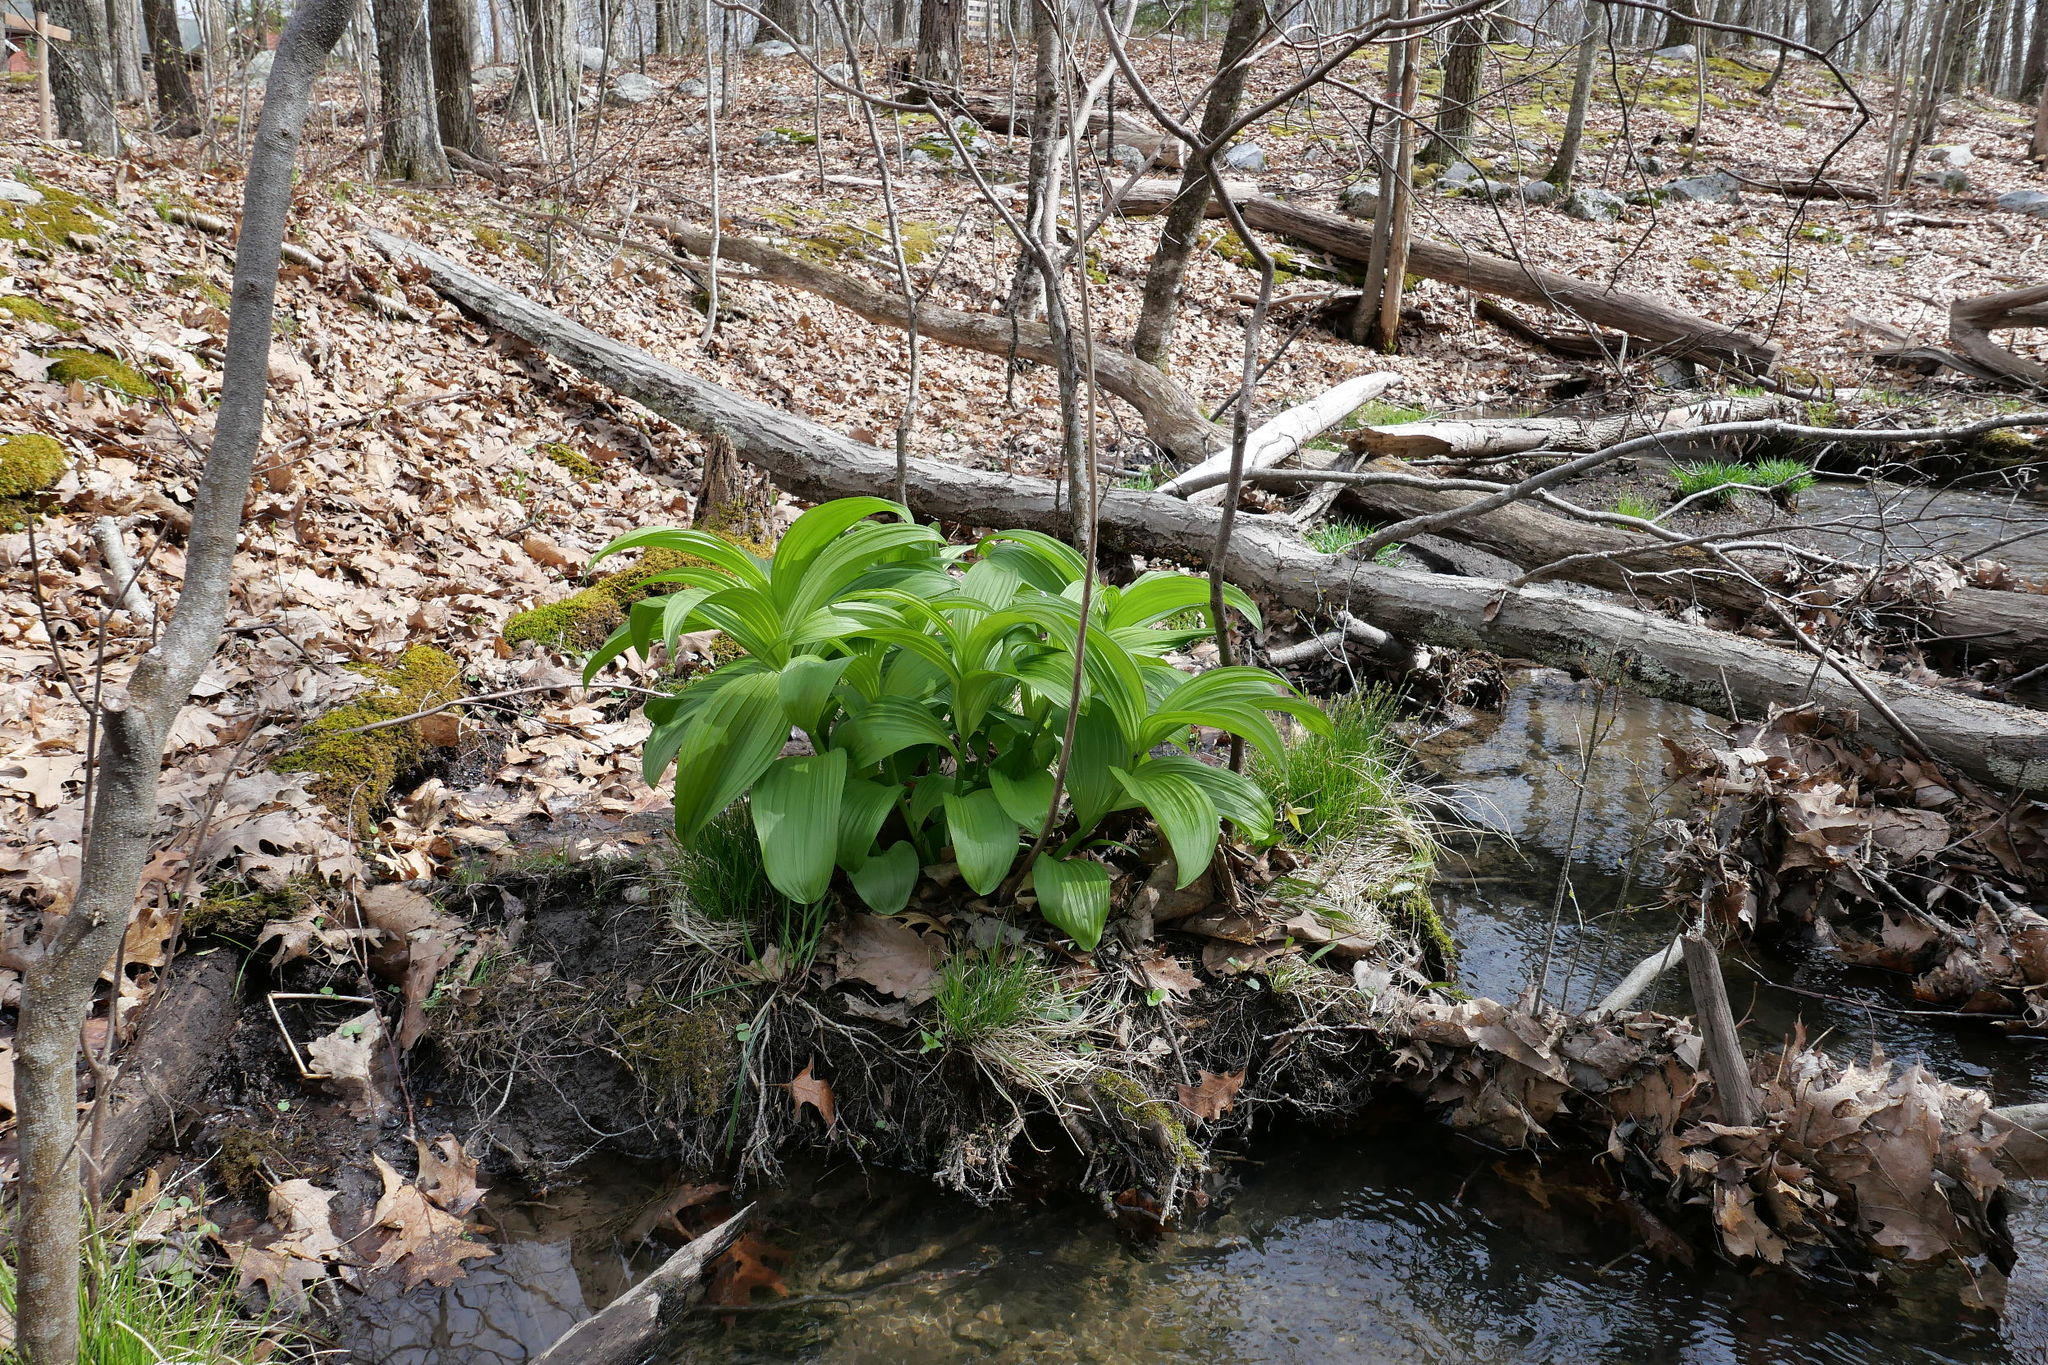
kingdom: Plantae
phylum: Tracheophyta
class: Liliopsida
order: Liliales
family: Melanthiaceae
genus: Veratrum
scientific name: Veratrum viride
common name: American false hellebore
